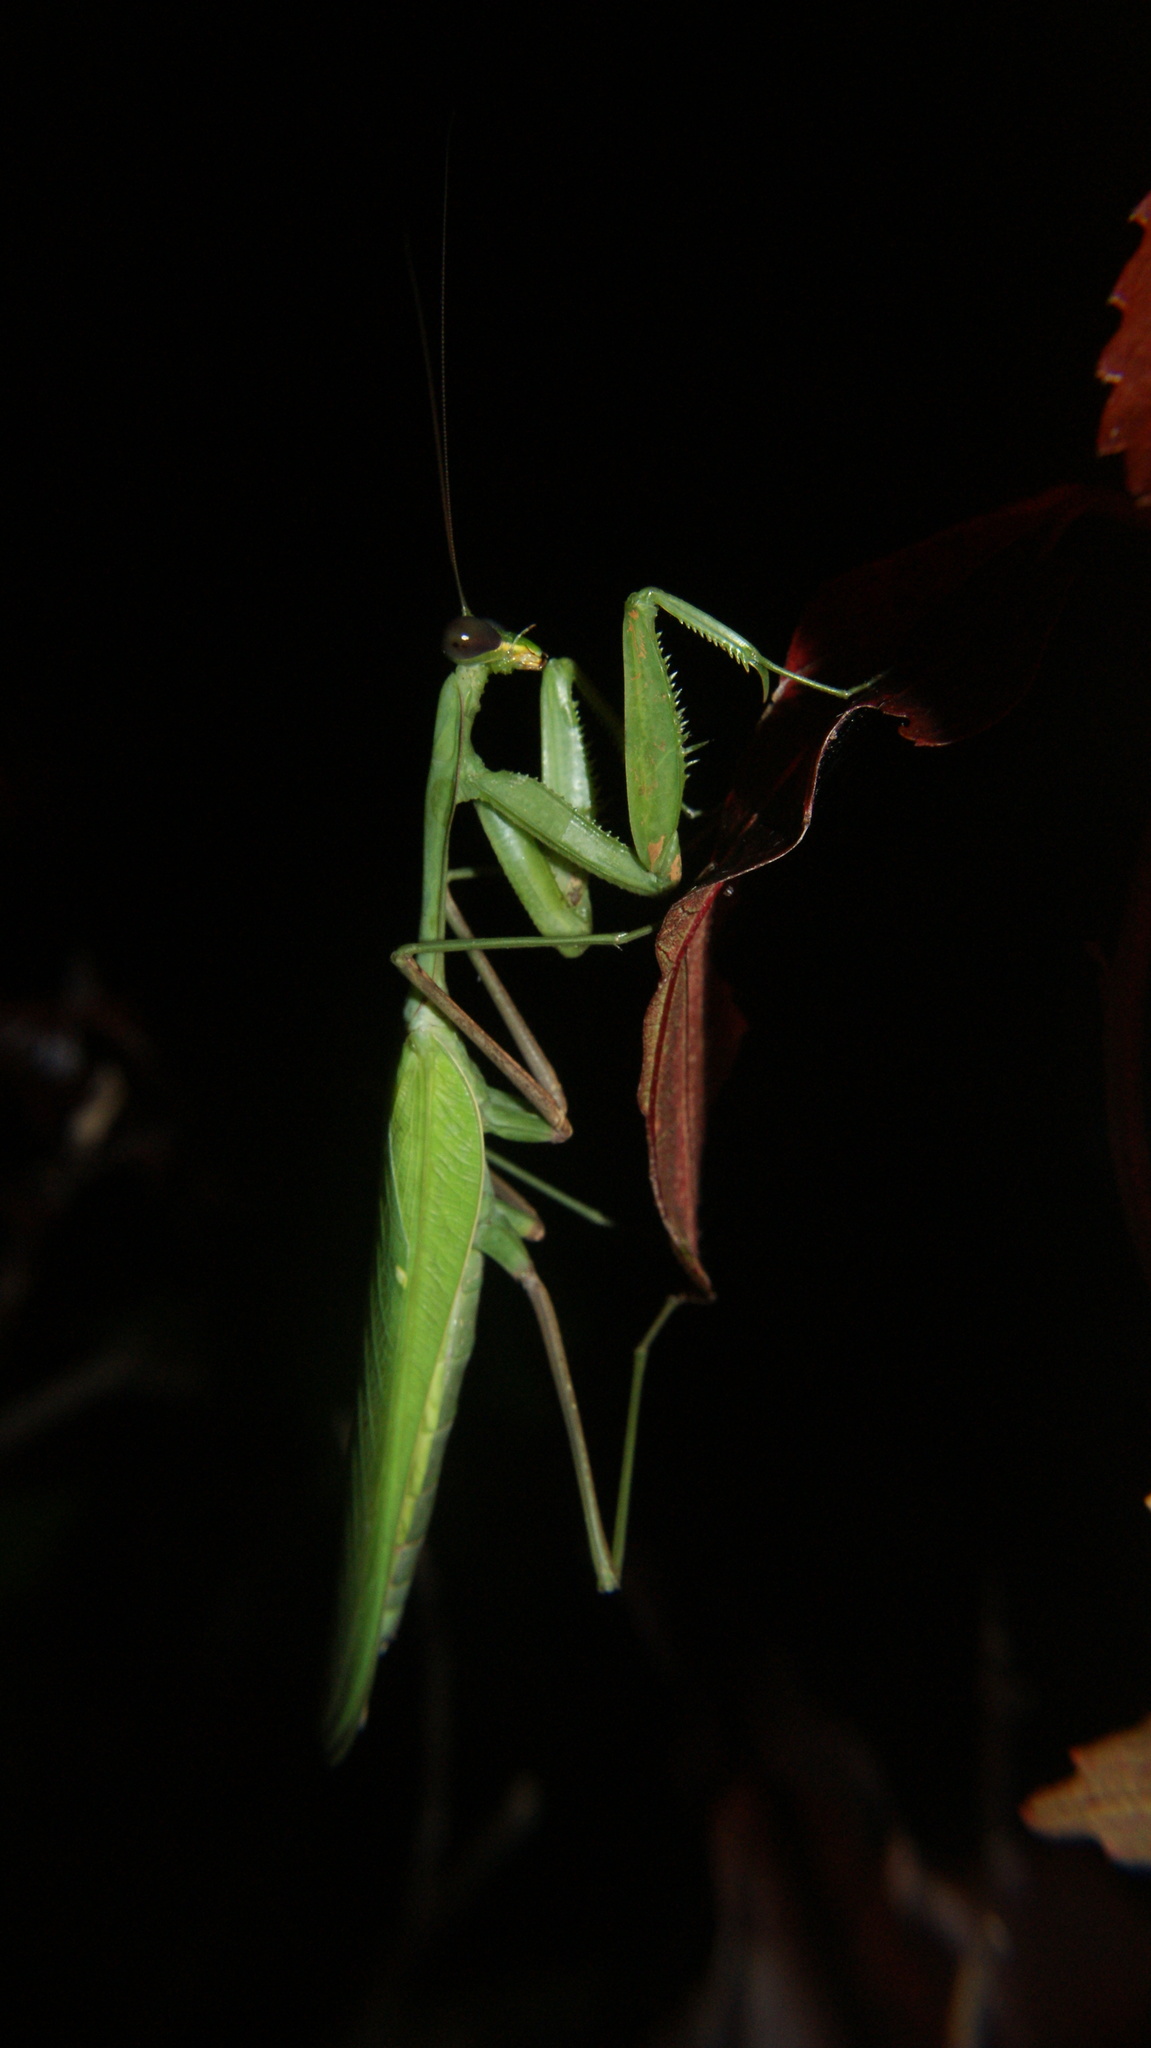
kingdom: Animalia
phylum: Arthropoda
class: Insecta
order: Mantodea
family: Mantidae
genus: Hierodula
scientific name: Hierodula membranacea
